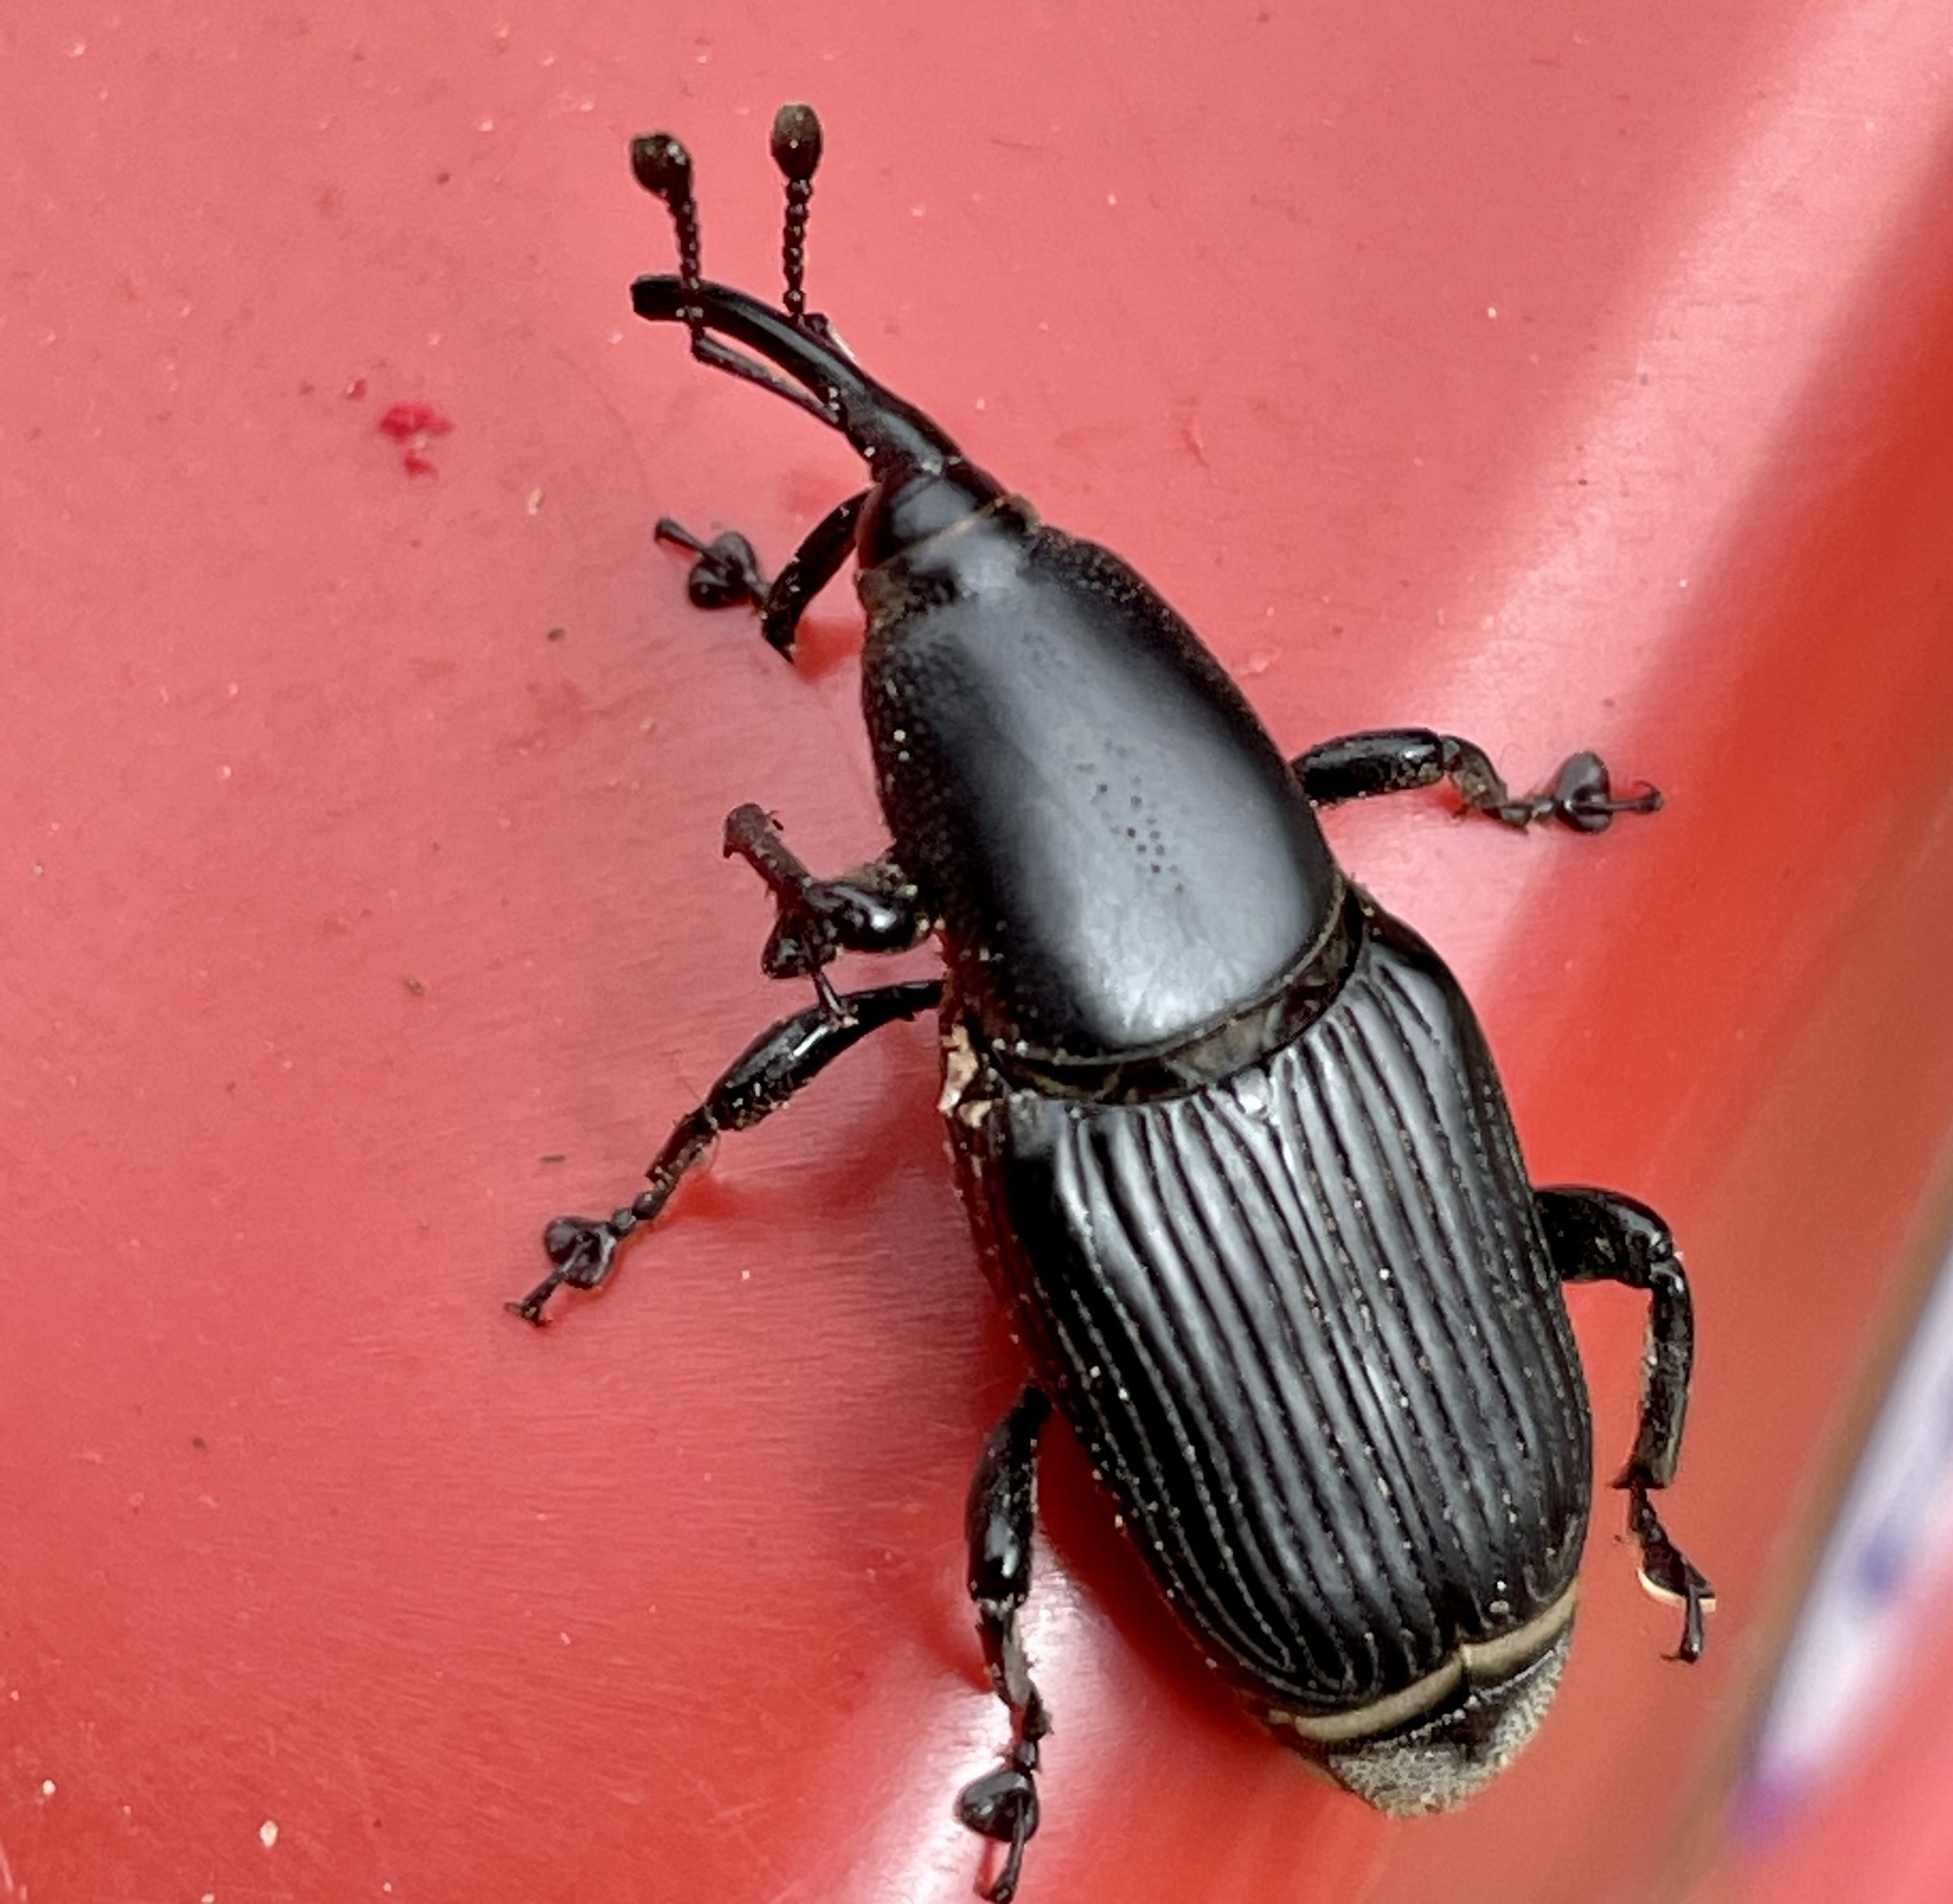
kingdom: Animalia
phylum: Arthropoda
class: Insecta
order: Coleoptera
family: Dryophthoridae
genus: Odoiporus
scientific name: Odoiporus longicollis
